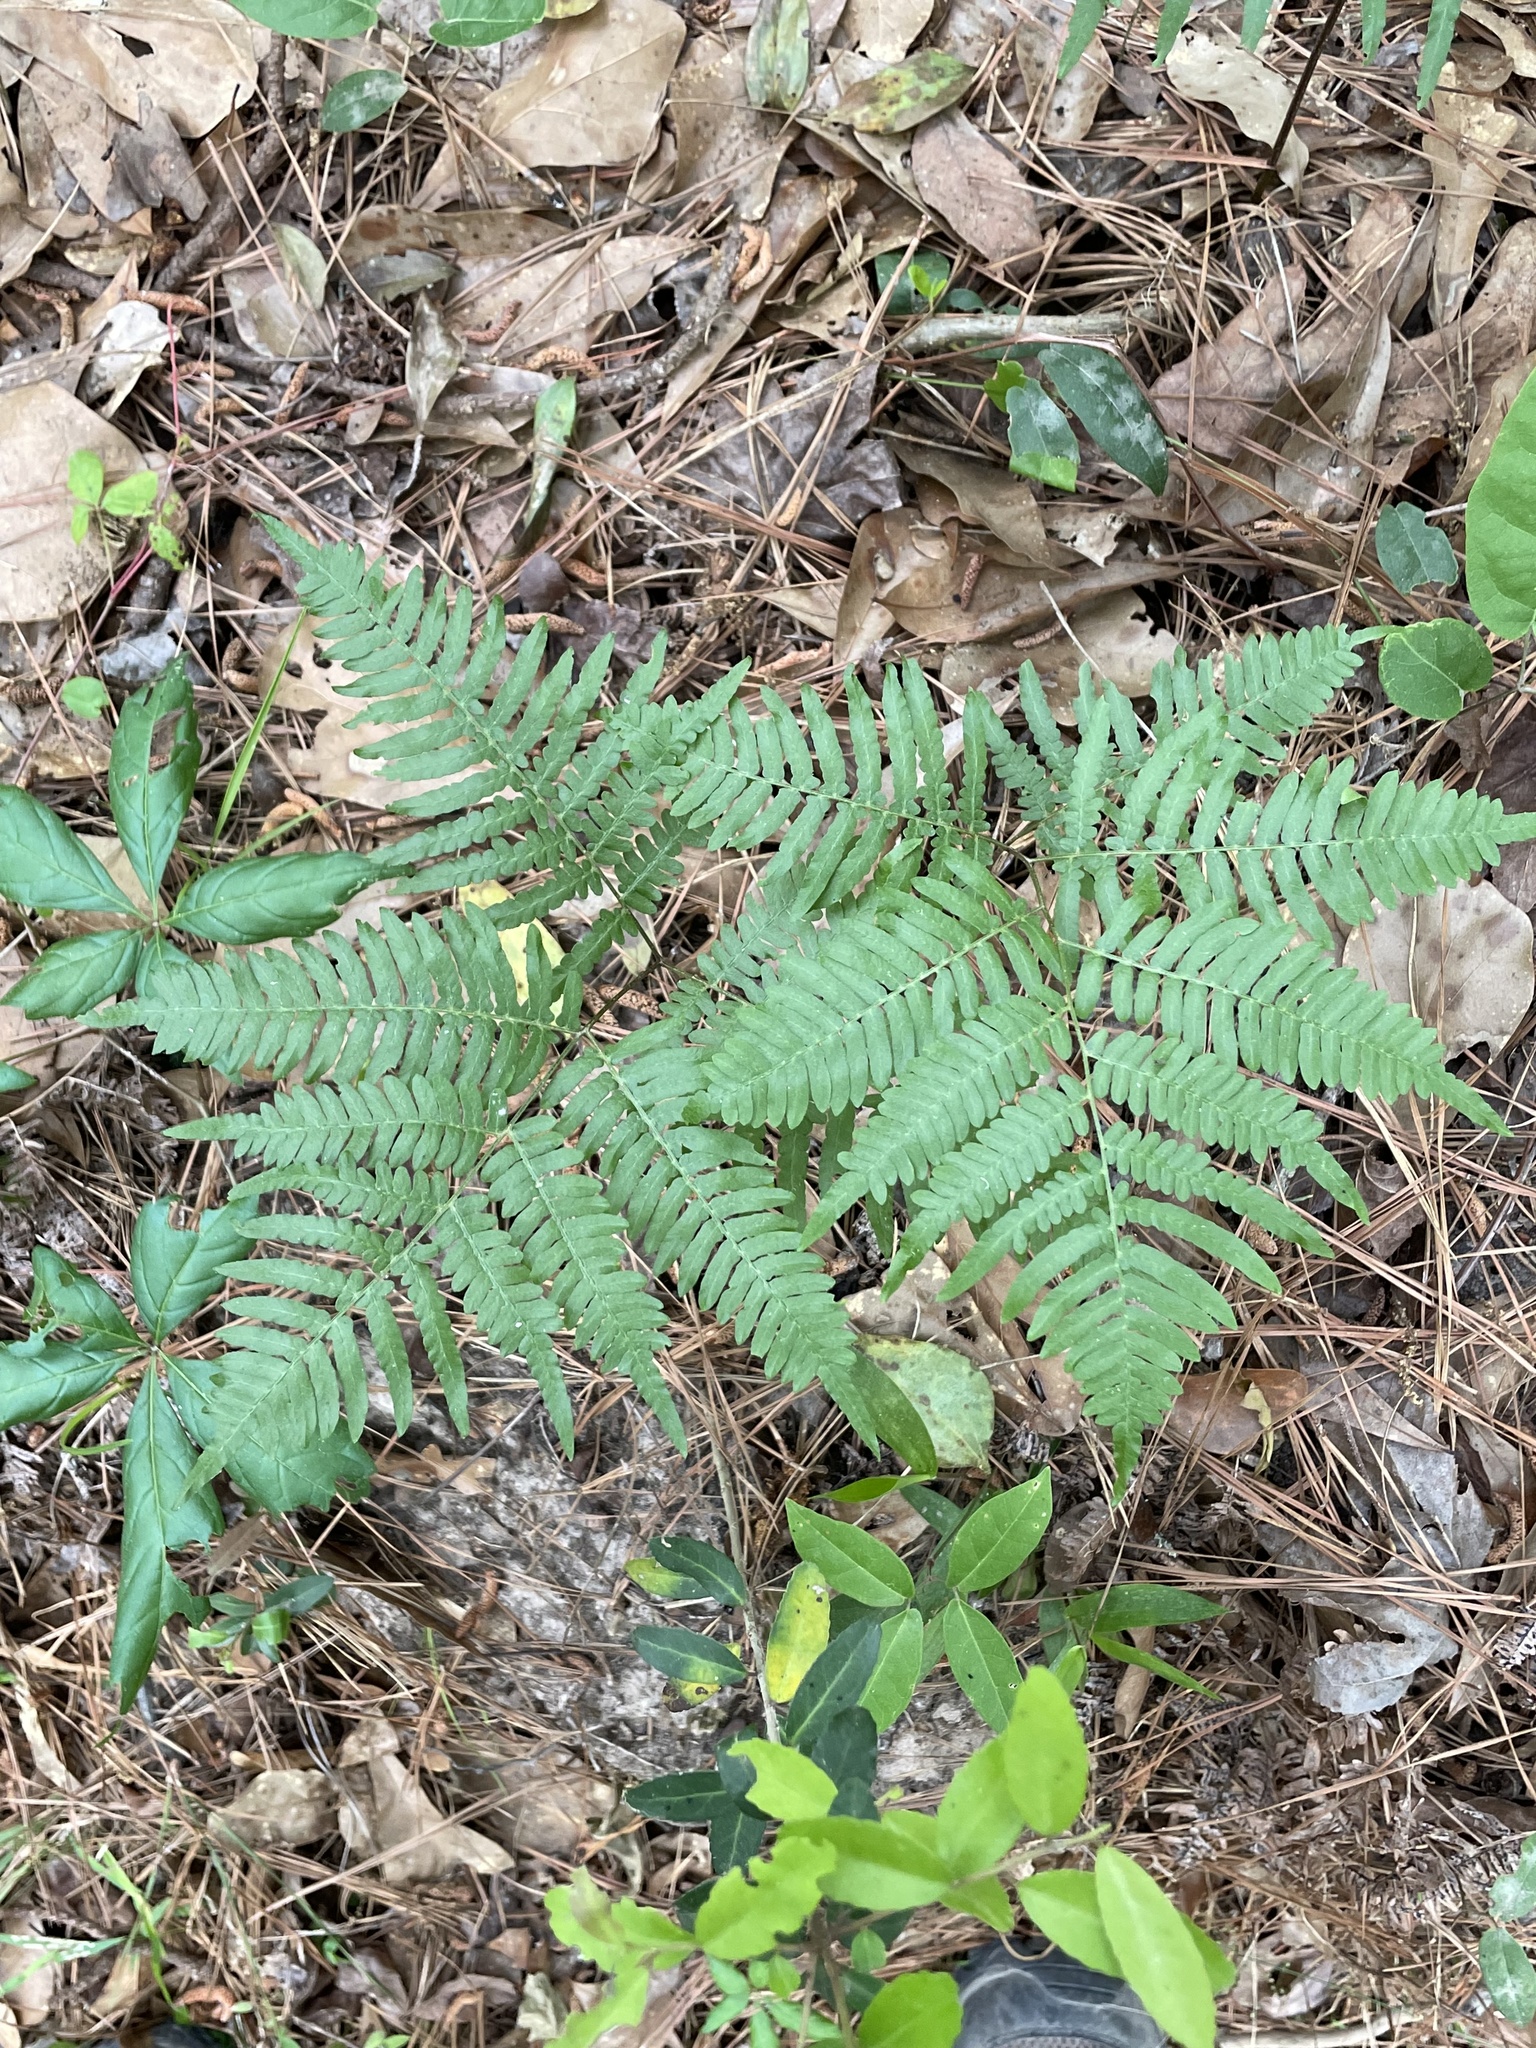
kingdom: Plantae
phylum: Tracheophyta
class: Polypodiopsida
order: Polypodiales
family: Dennstaedtiaceae
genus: Pteridium
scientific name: Pteridium
